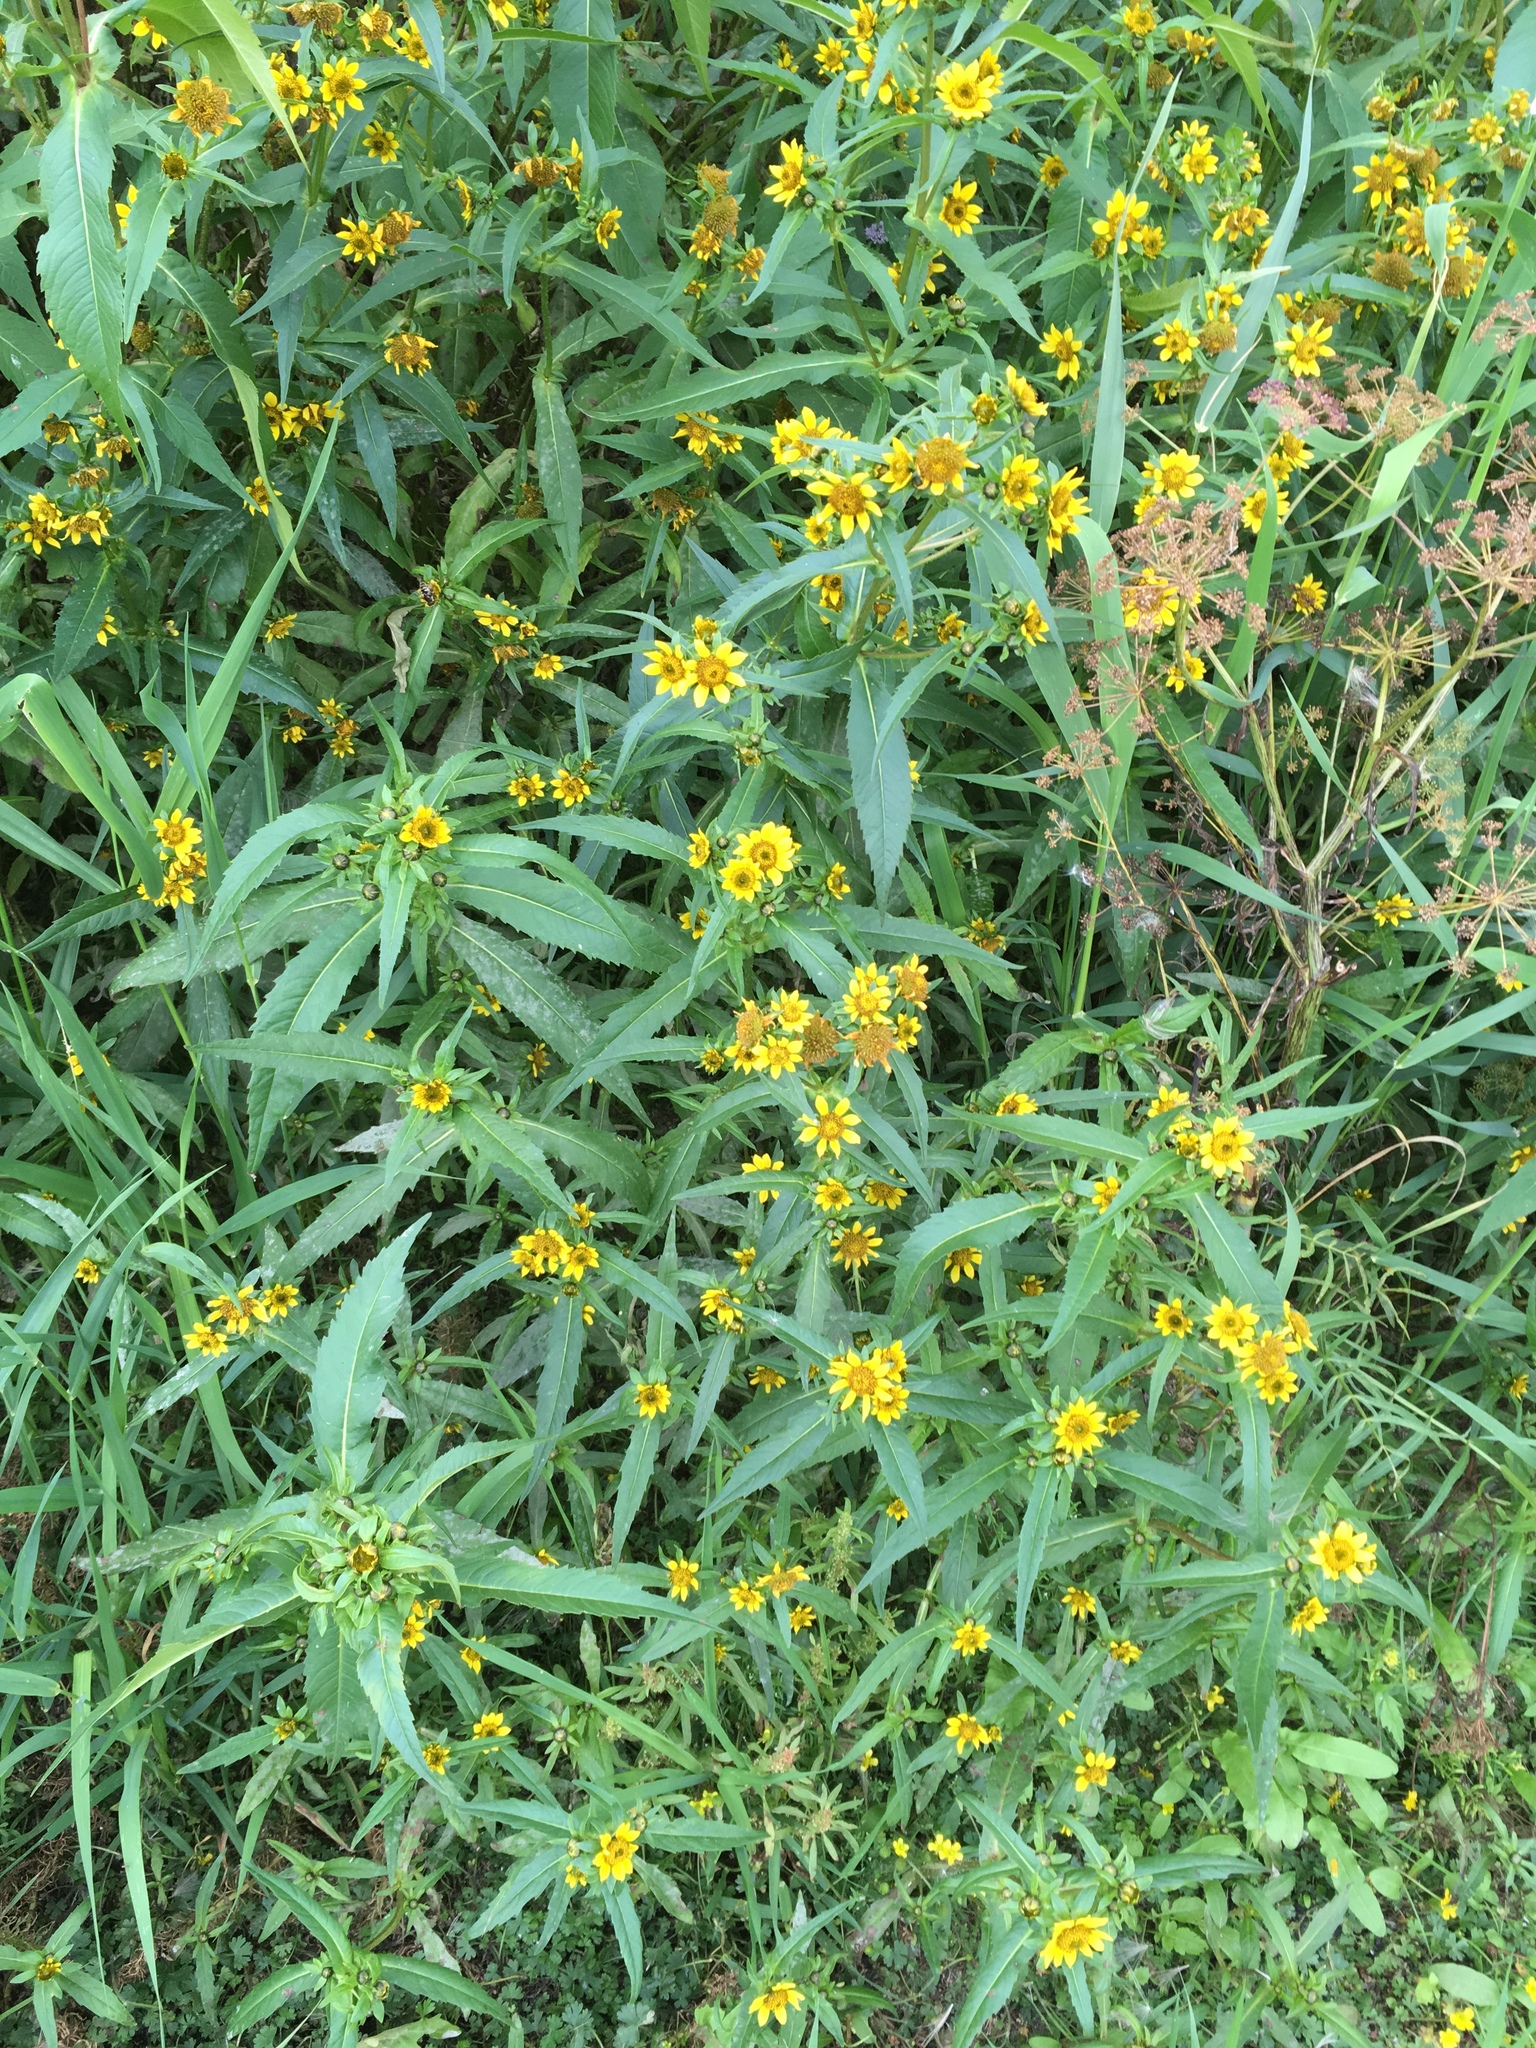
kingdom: Plantae
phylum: Tracheophyta
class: Magnoliopsida
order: Asterales
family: Asteraceae
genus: Bidens
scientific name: Bidens cernua
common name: Nodding bur-marigold
